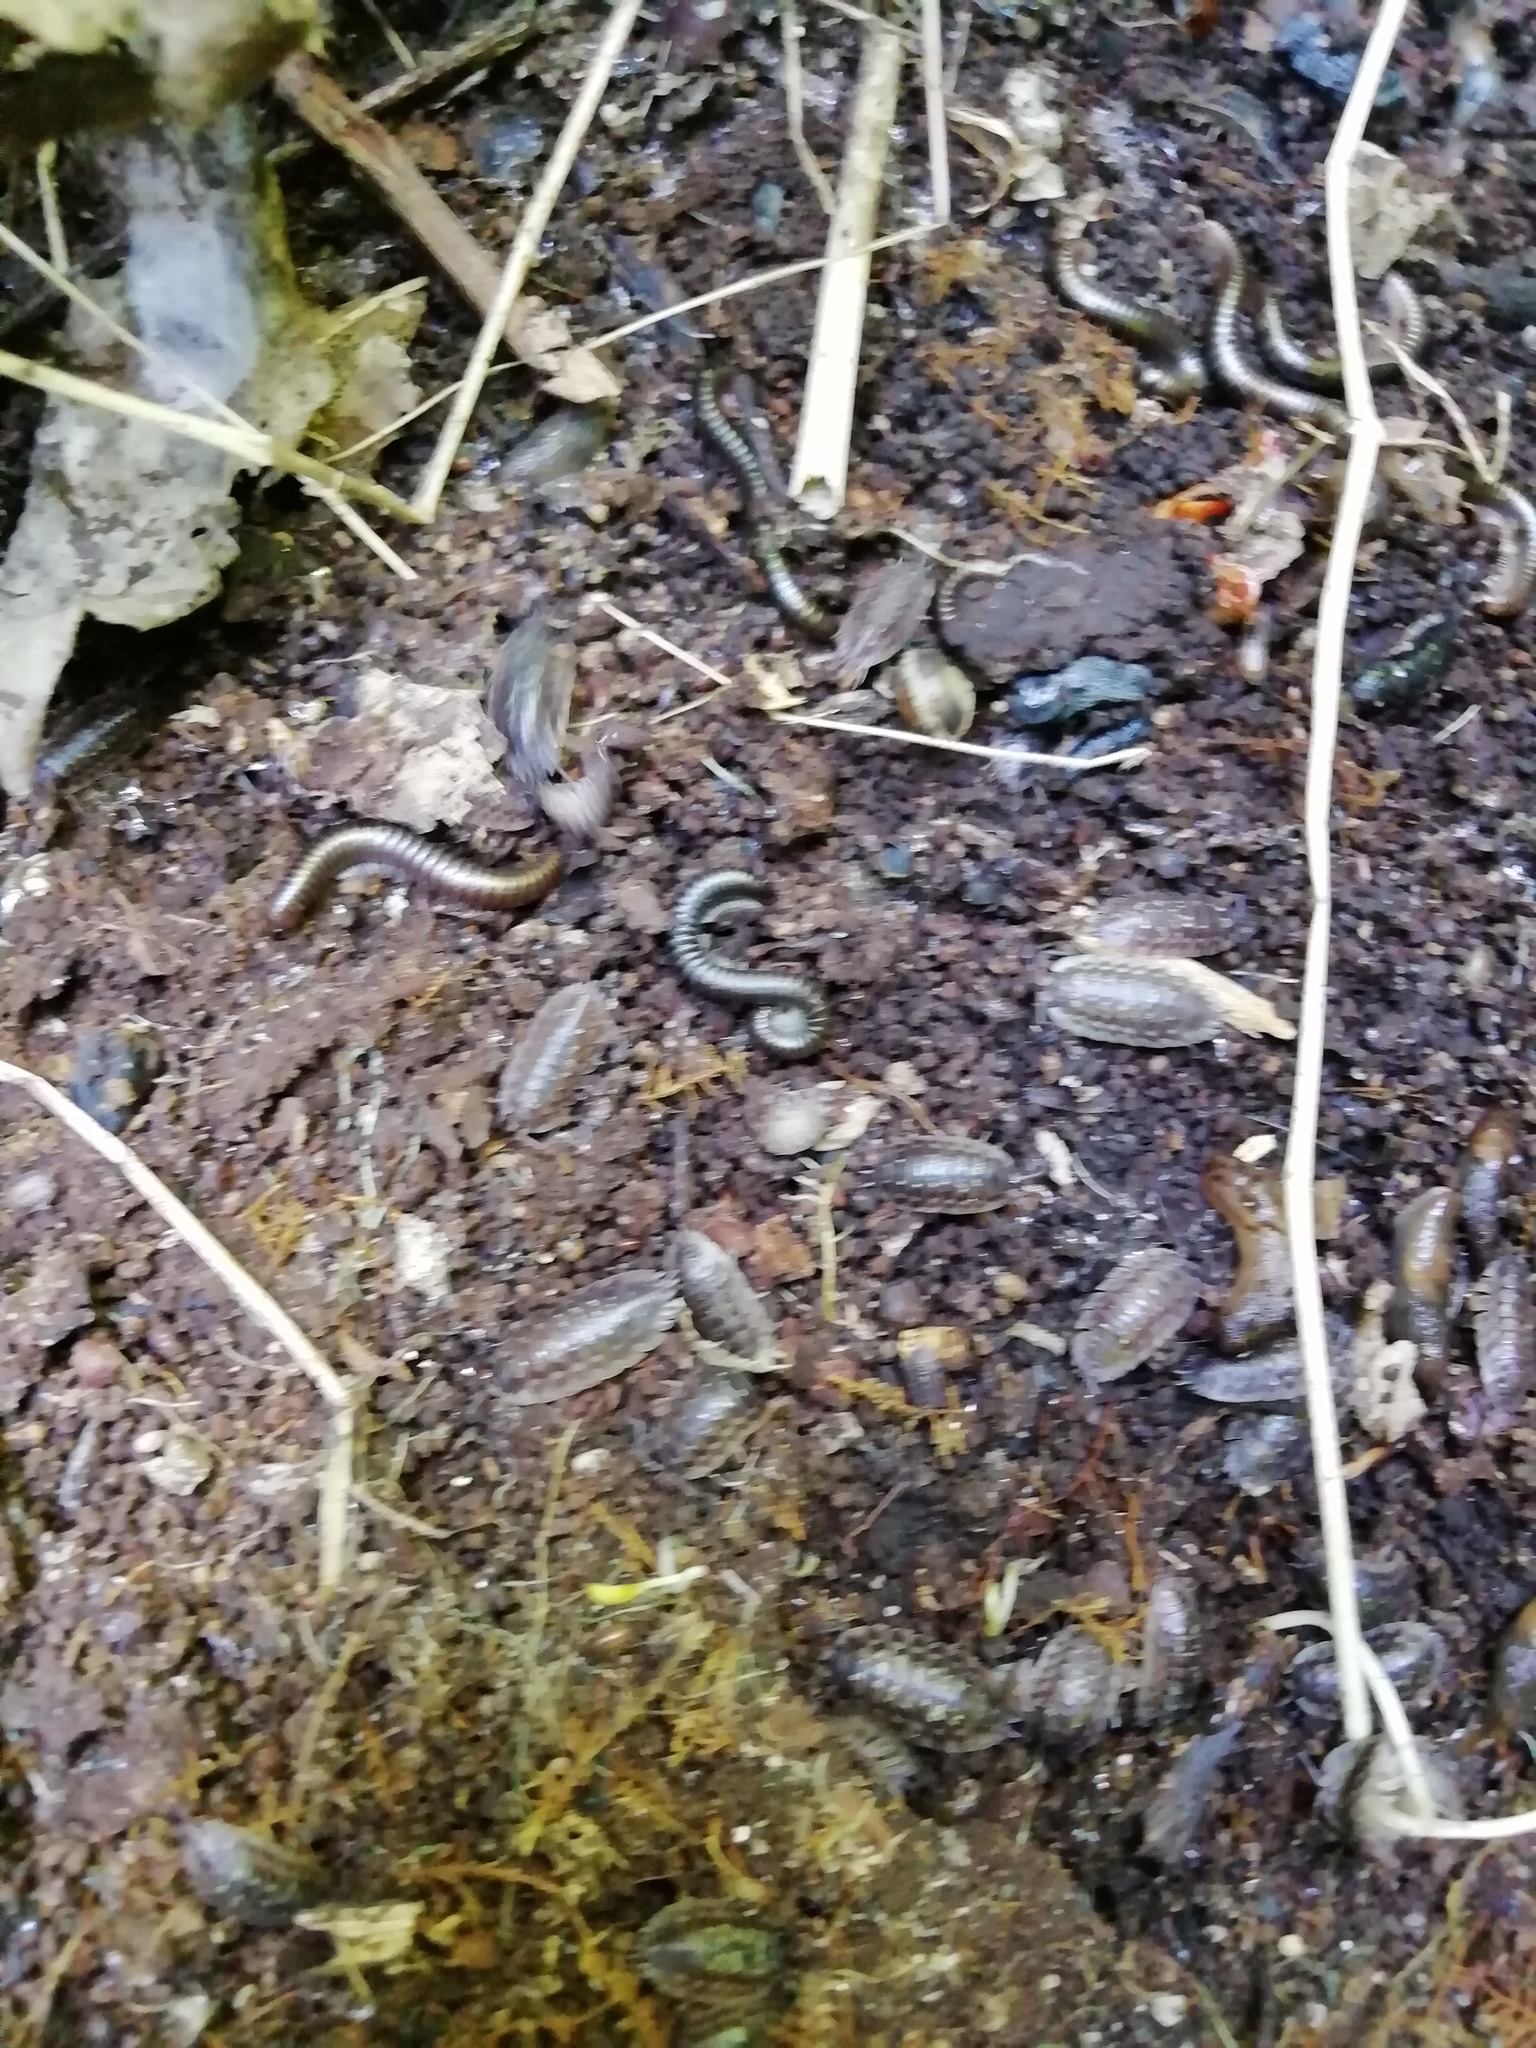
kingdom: Animalia
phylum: Arthropoda
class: Malacostraca
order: Isopoda
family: Oniscidae
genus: Oniscus
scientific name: Oniscus asellus
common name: Common shiny woodlouse
